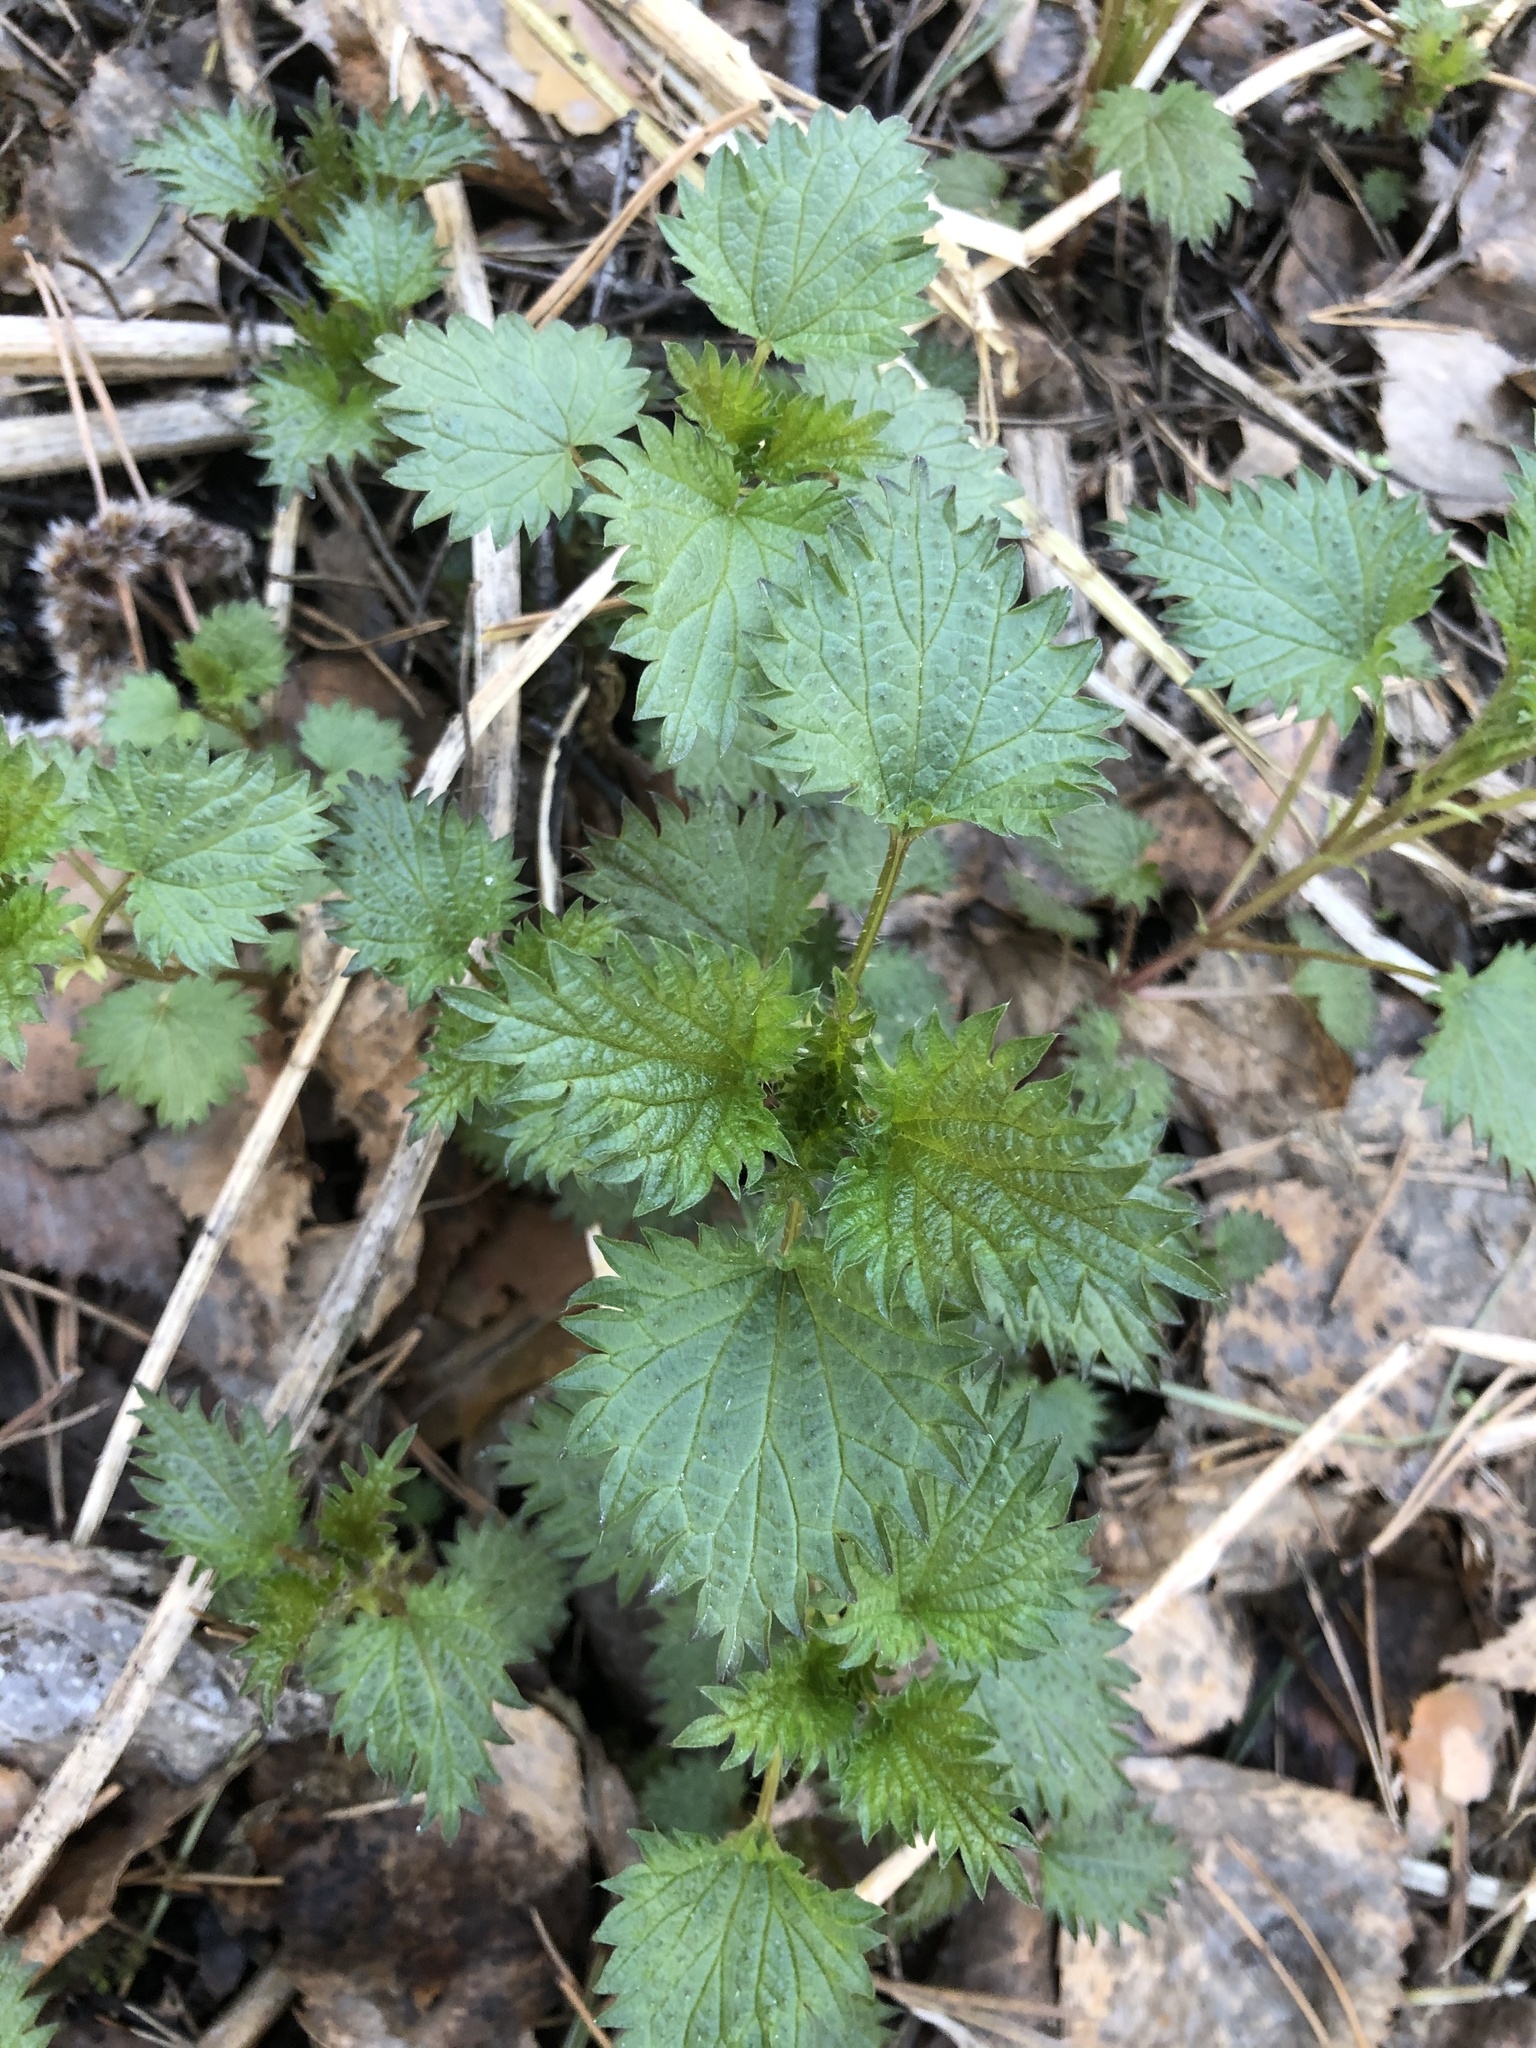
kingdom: Plantae
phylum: Tracheophyta
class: Magnoliopsida
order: Rosales
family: Urticaceae
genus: Urtica
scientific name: Urtica dioica
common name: Common nettle
